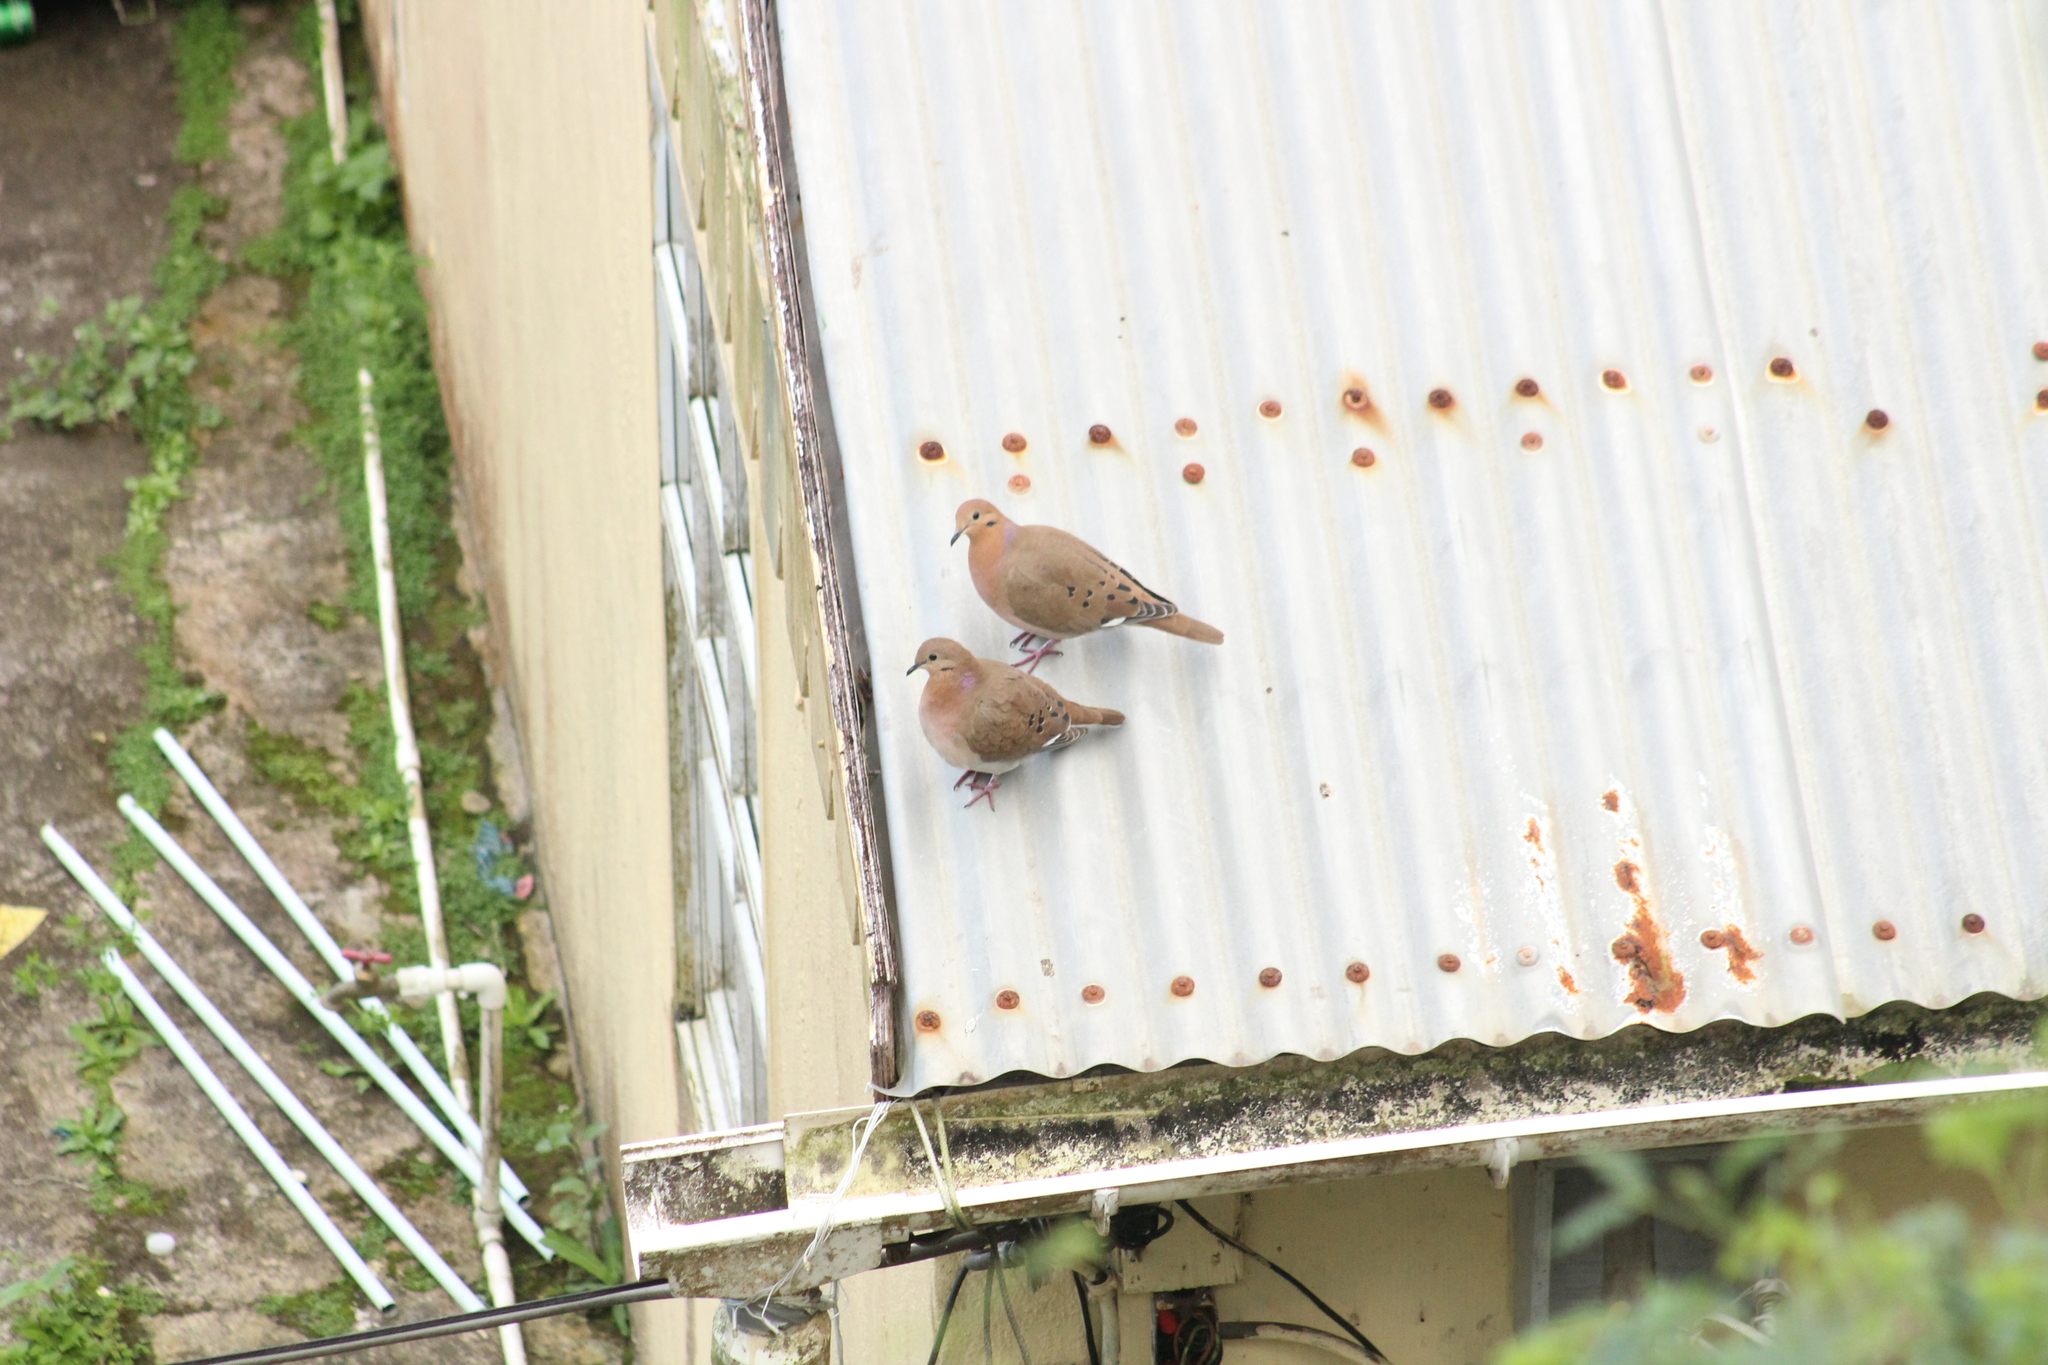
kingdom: Animalia
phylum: Chordata
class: Aves
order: Columbiformes
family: Columbidae
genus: Zenaida
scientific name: Zenaida aurita
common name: Zenaida dove
